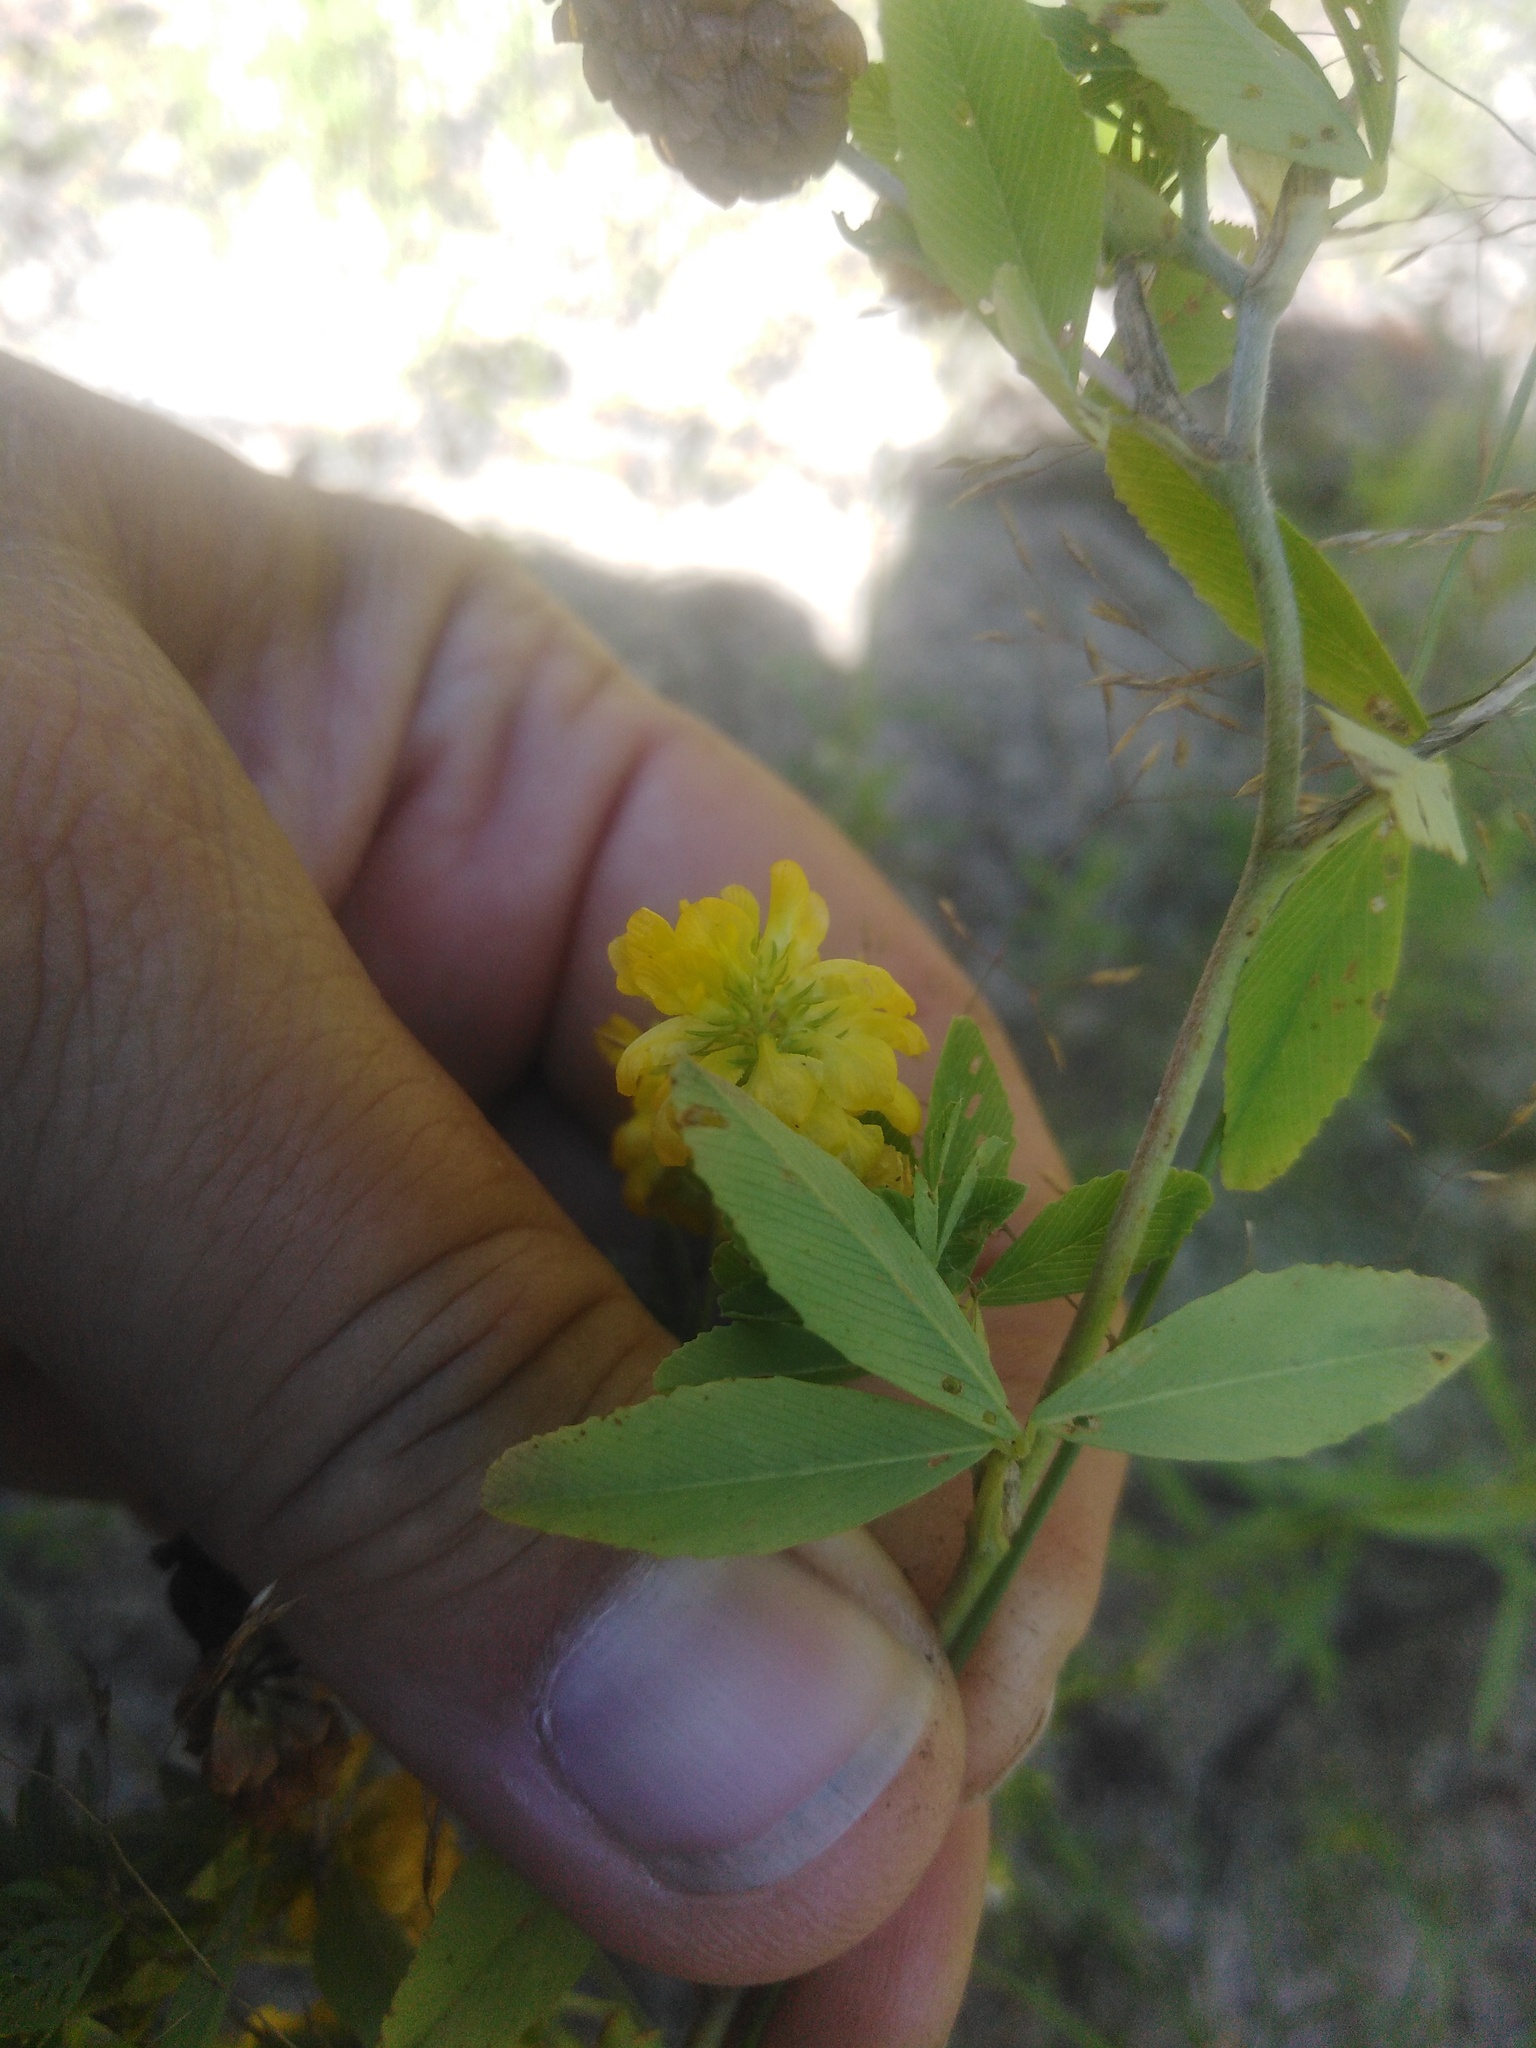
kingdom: Plantae
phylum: Tracheophyta
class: Magnoliopsida
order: Fabales
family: Fabaceae
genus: Trifolium
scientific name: Trifolium aureum
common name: Golden clover
